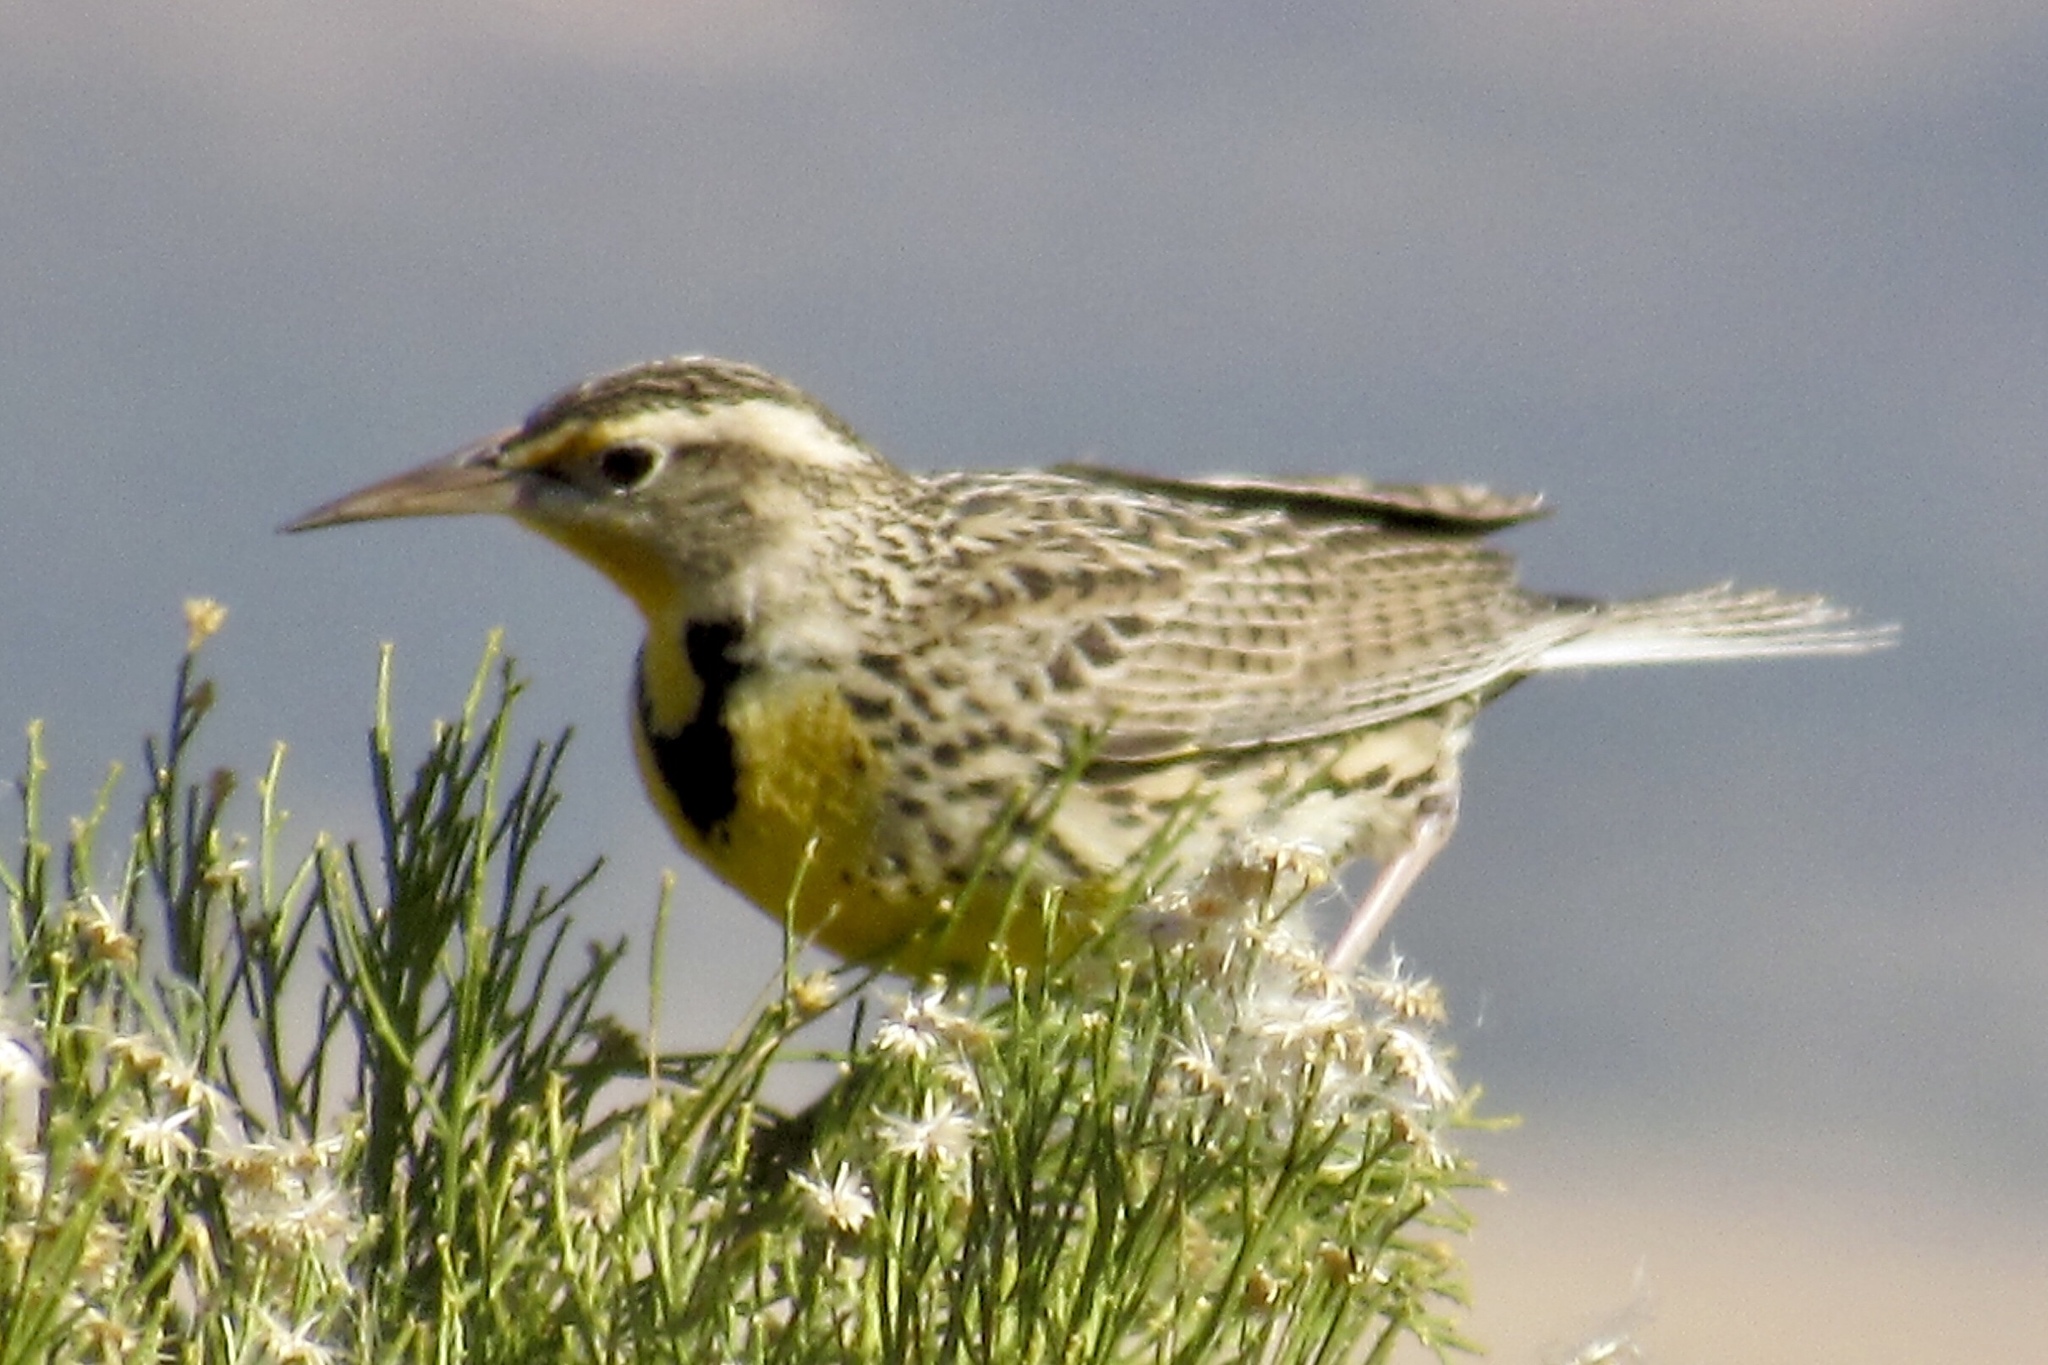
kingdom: Animalia
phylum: Chordata
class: Aves
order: Passeriformes
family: Icteridae
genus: Sturnella
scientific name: Sturnella neglecta
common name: Western meadowlark
